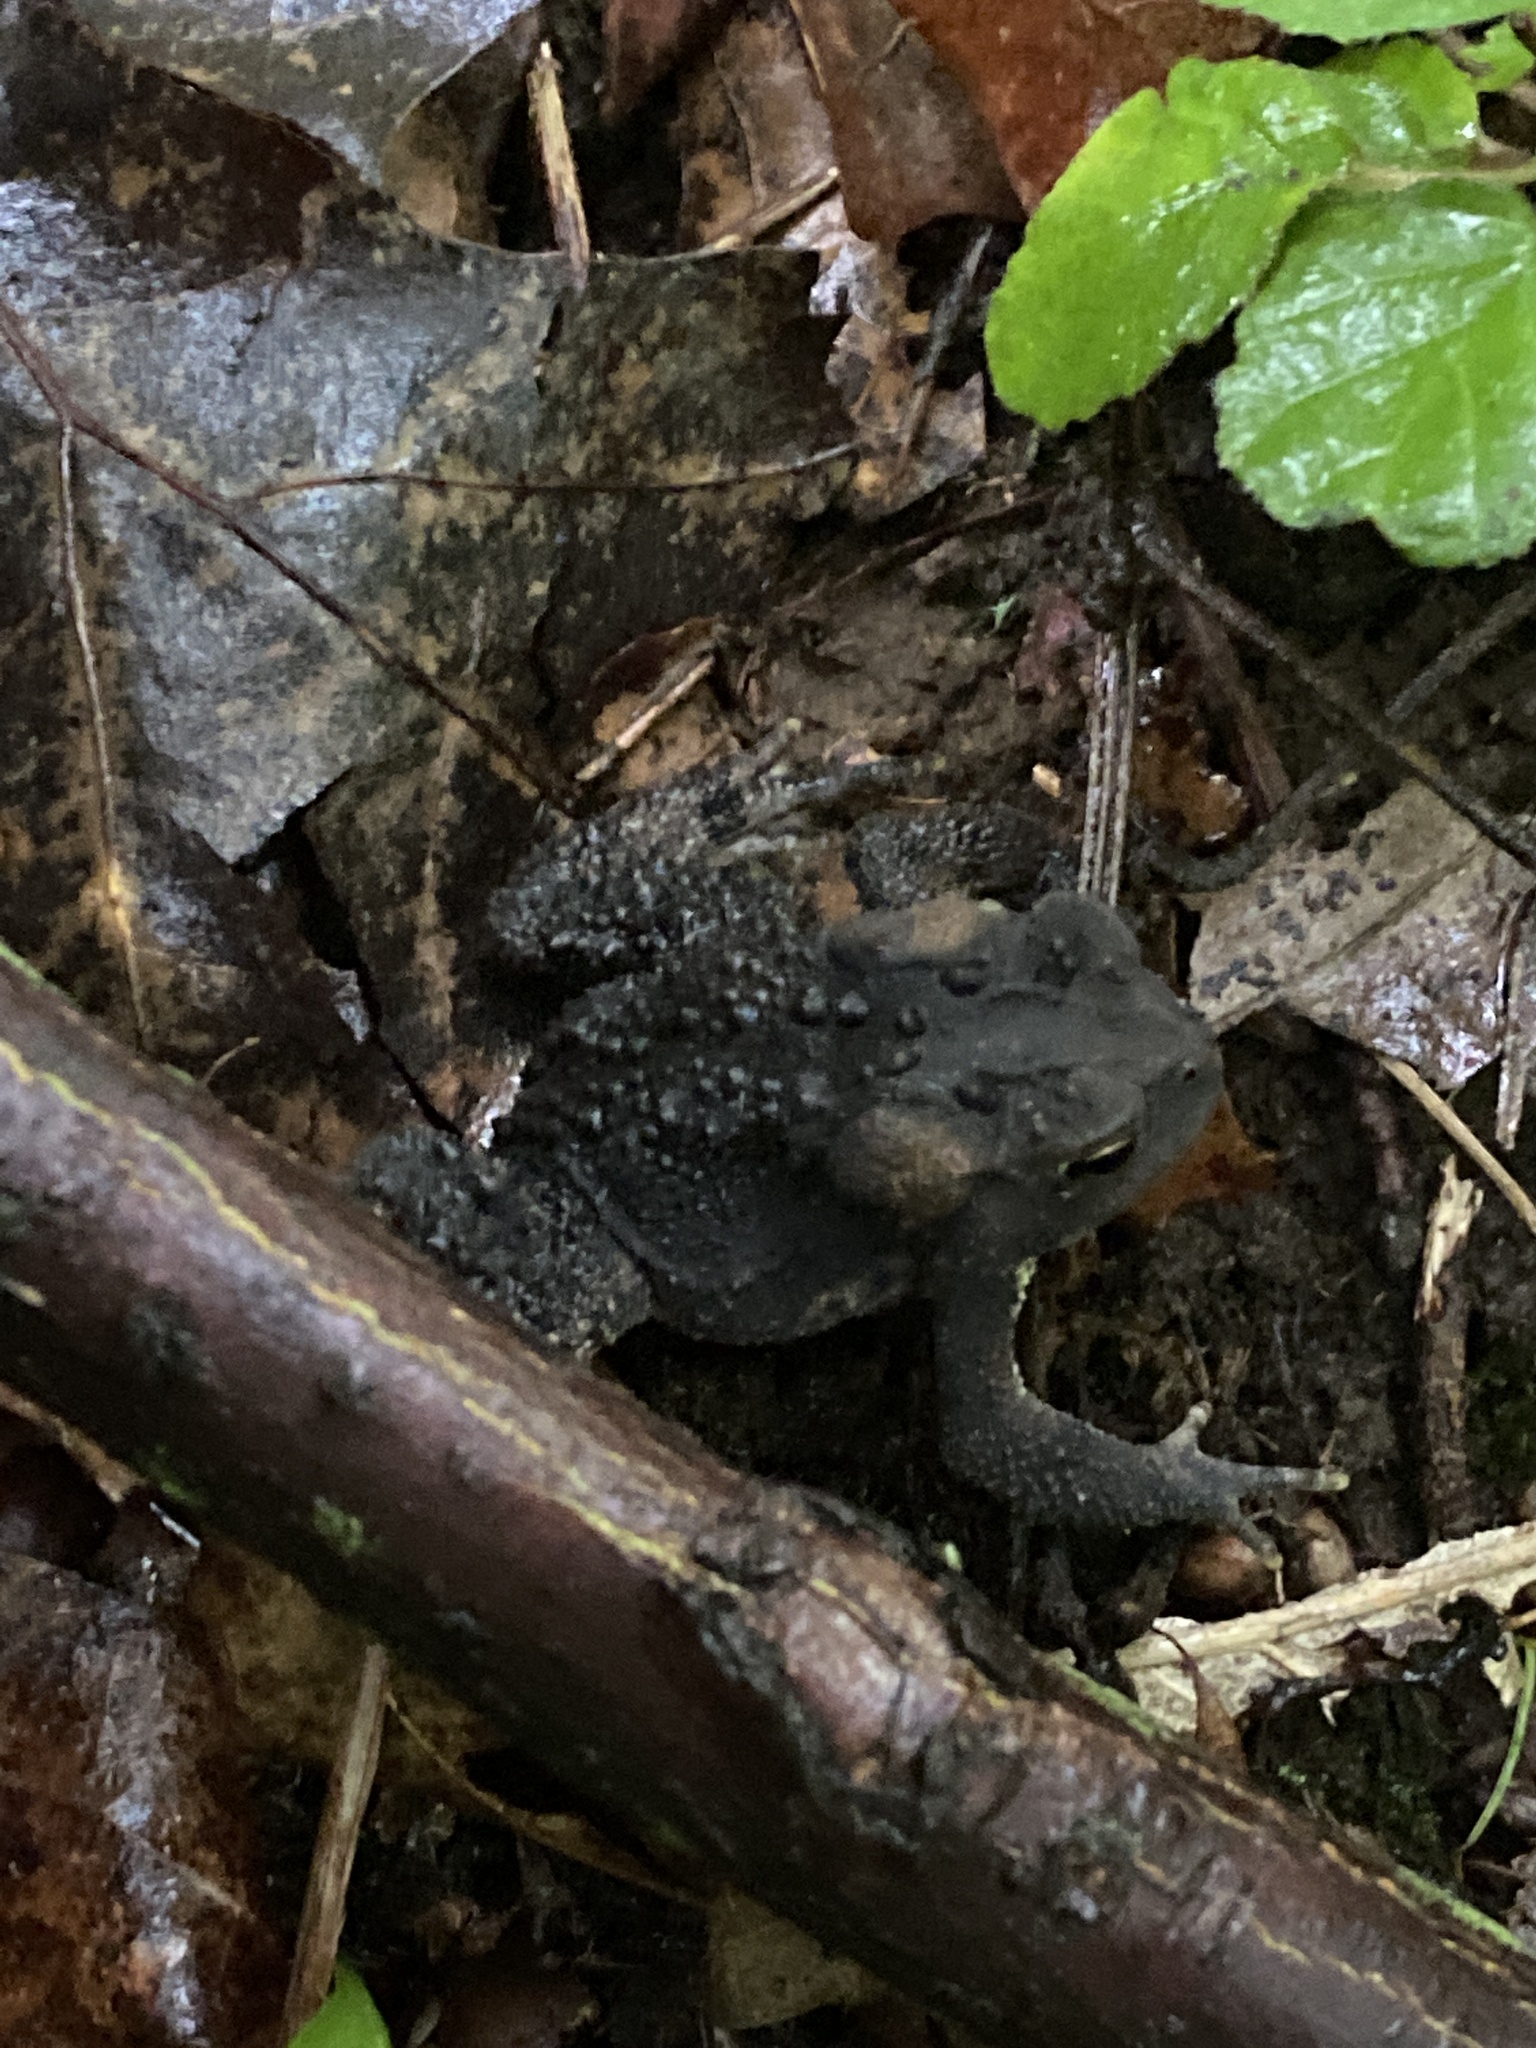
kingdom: Animalia
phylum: Chordata
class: Amphibia
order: Anura
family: Bufonidae
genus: Anaxyrus
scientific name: Anaxyrus americanus
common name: American toad
